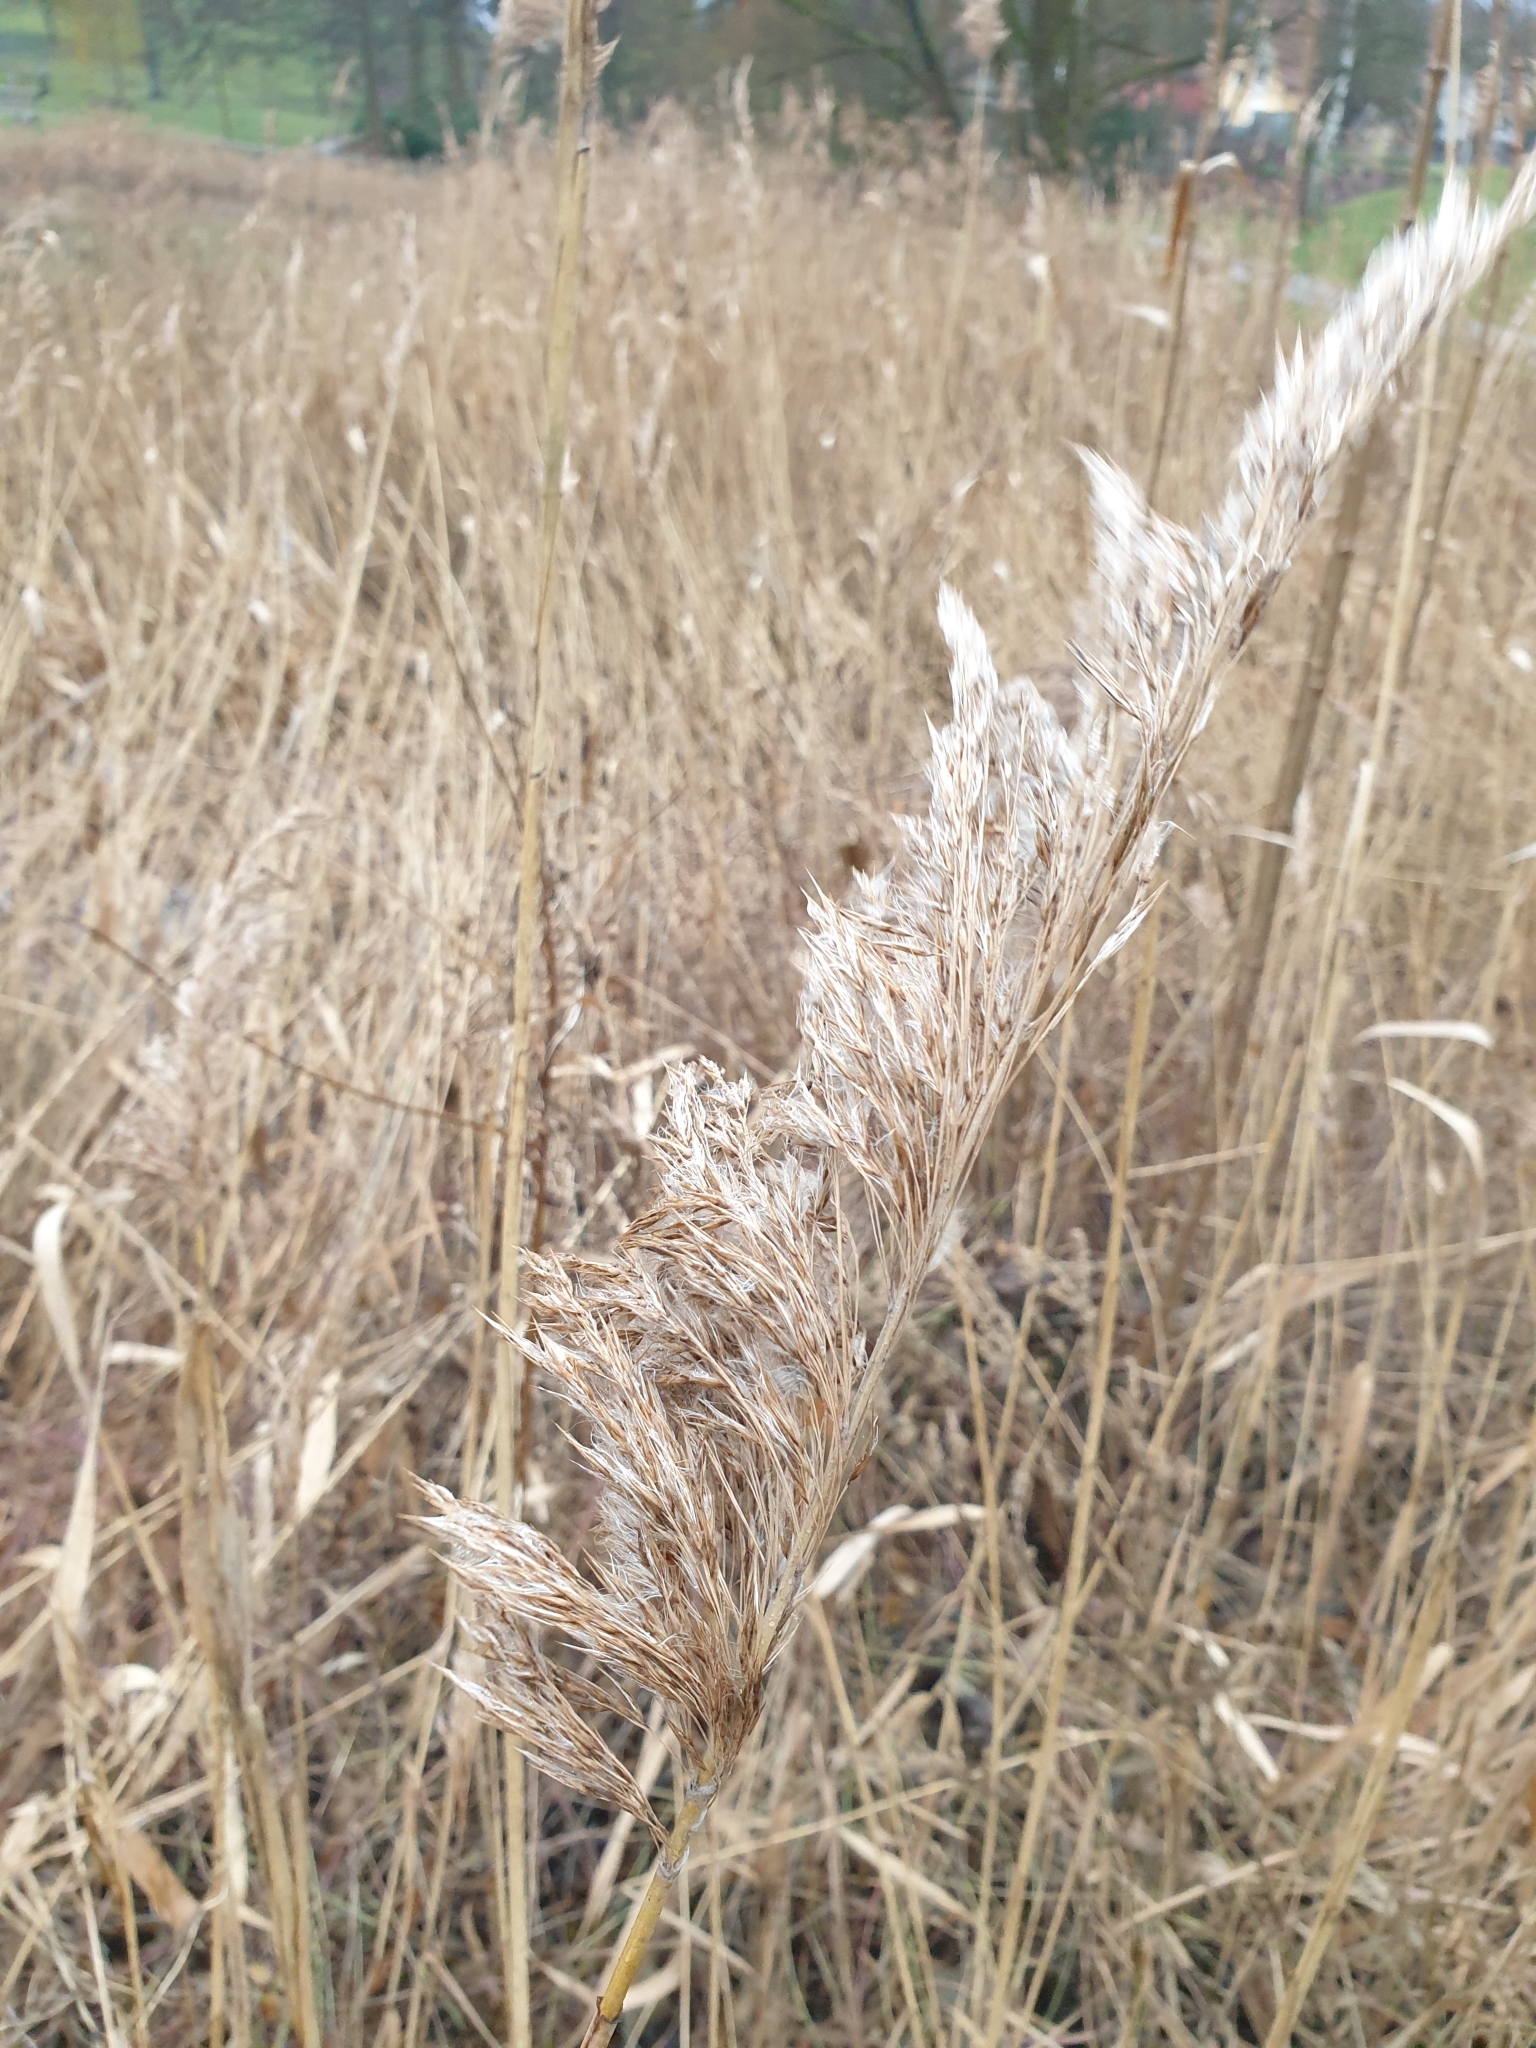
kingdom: Plantae
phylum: Tracheophyta
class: Liliopsida
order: Poales
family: Poaceae
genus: Phragmites
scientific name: Phragmites australis
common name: Common reed
